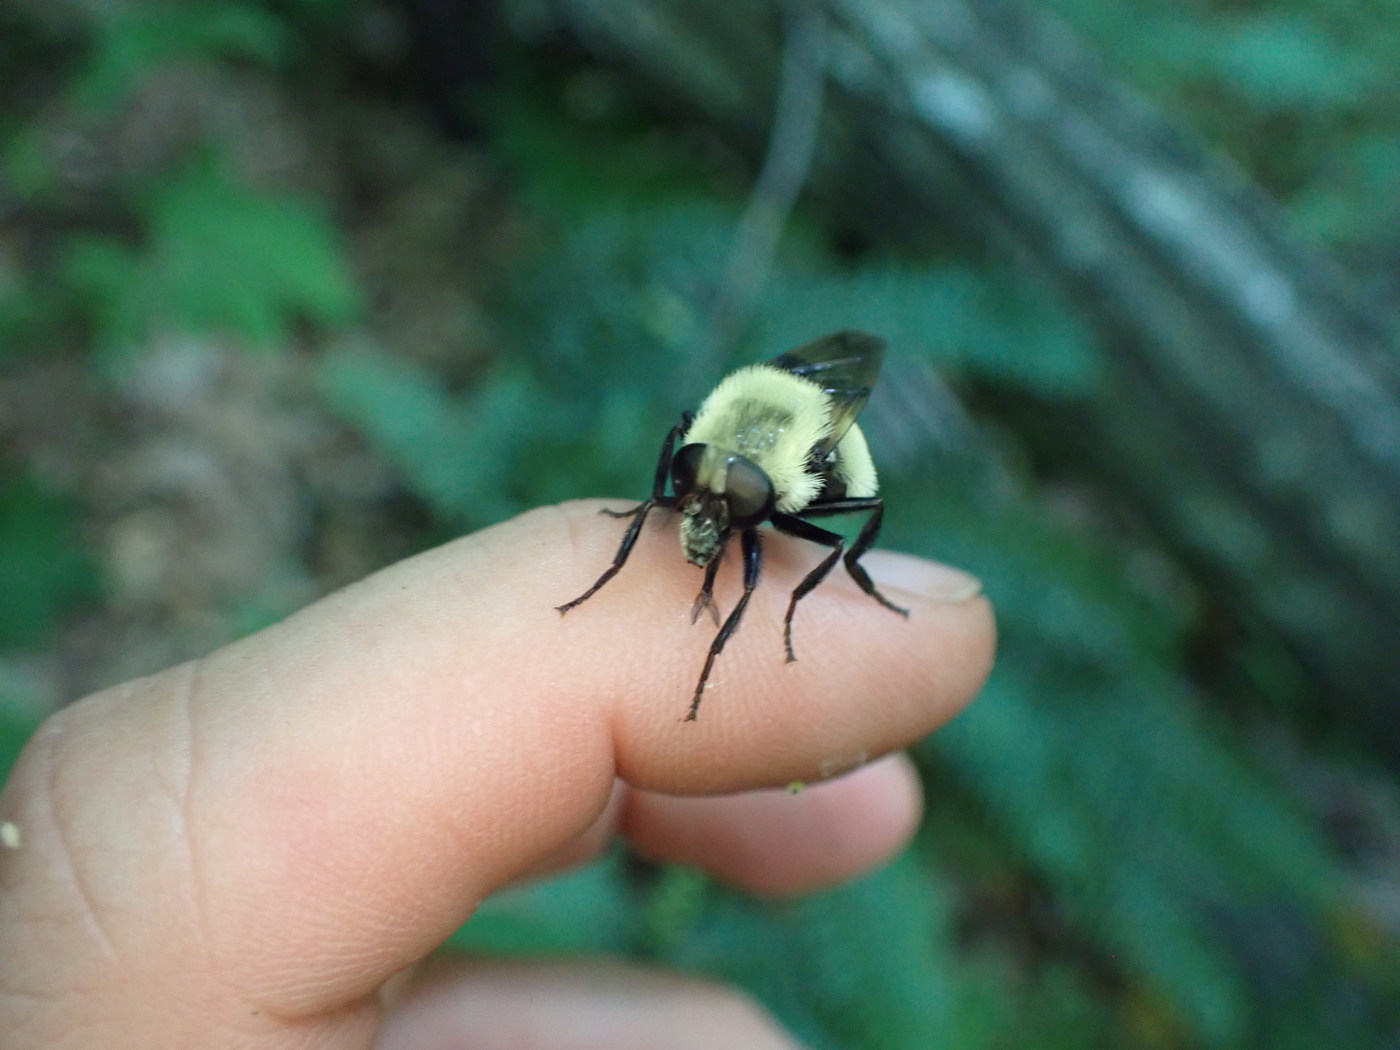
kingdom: Animalia
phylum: Arthropoda
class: Insecta
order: Diptera
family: Syrphidae
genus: Volucella
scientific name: Volucella evecta
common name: Eastern swiftwing
